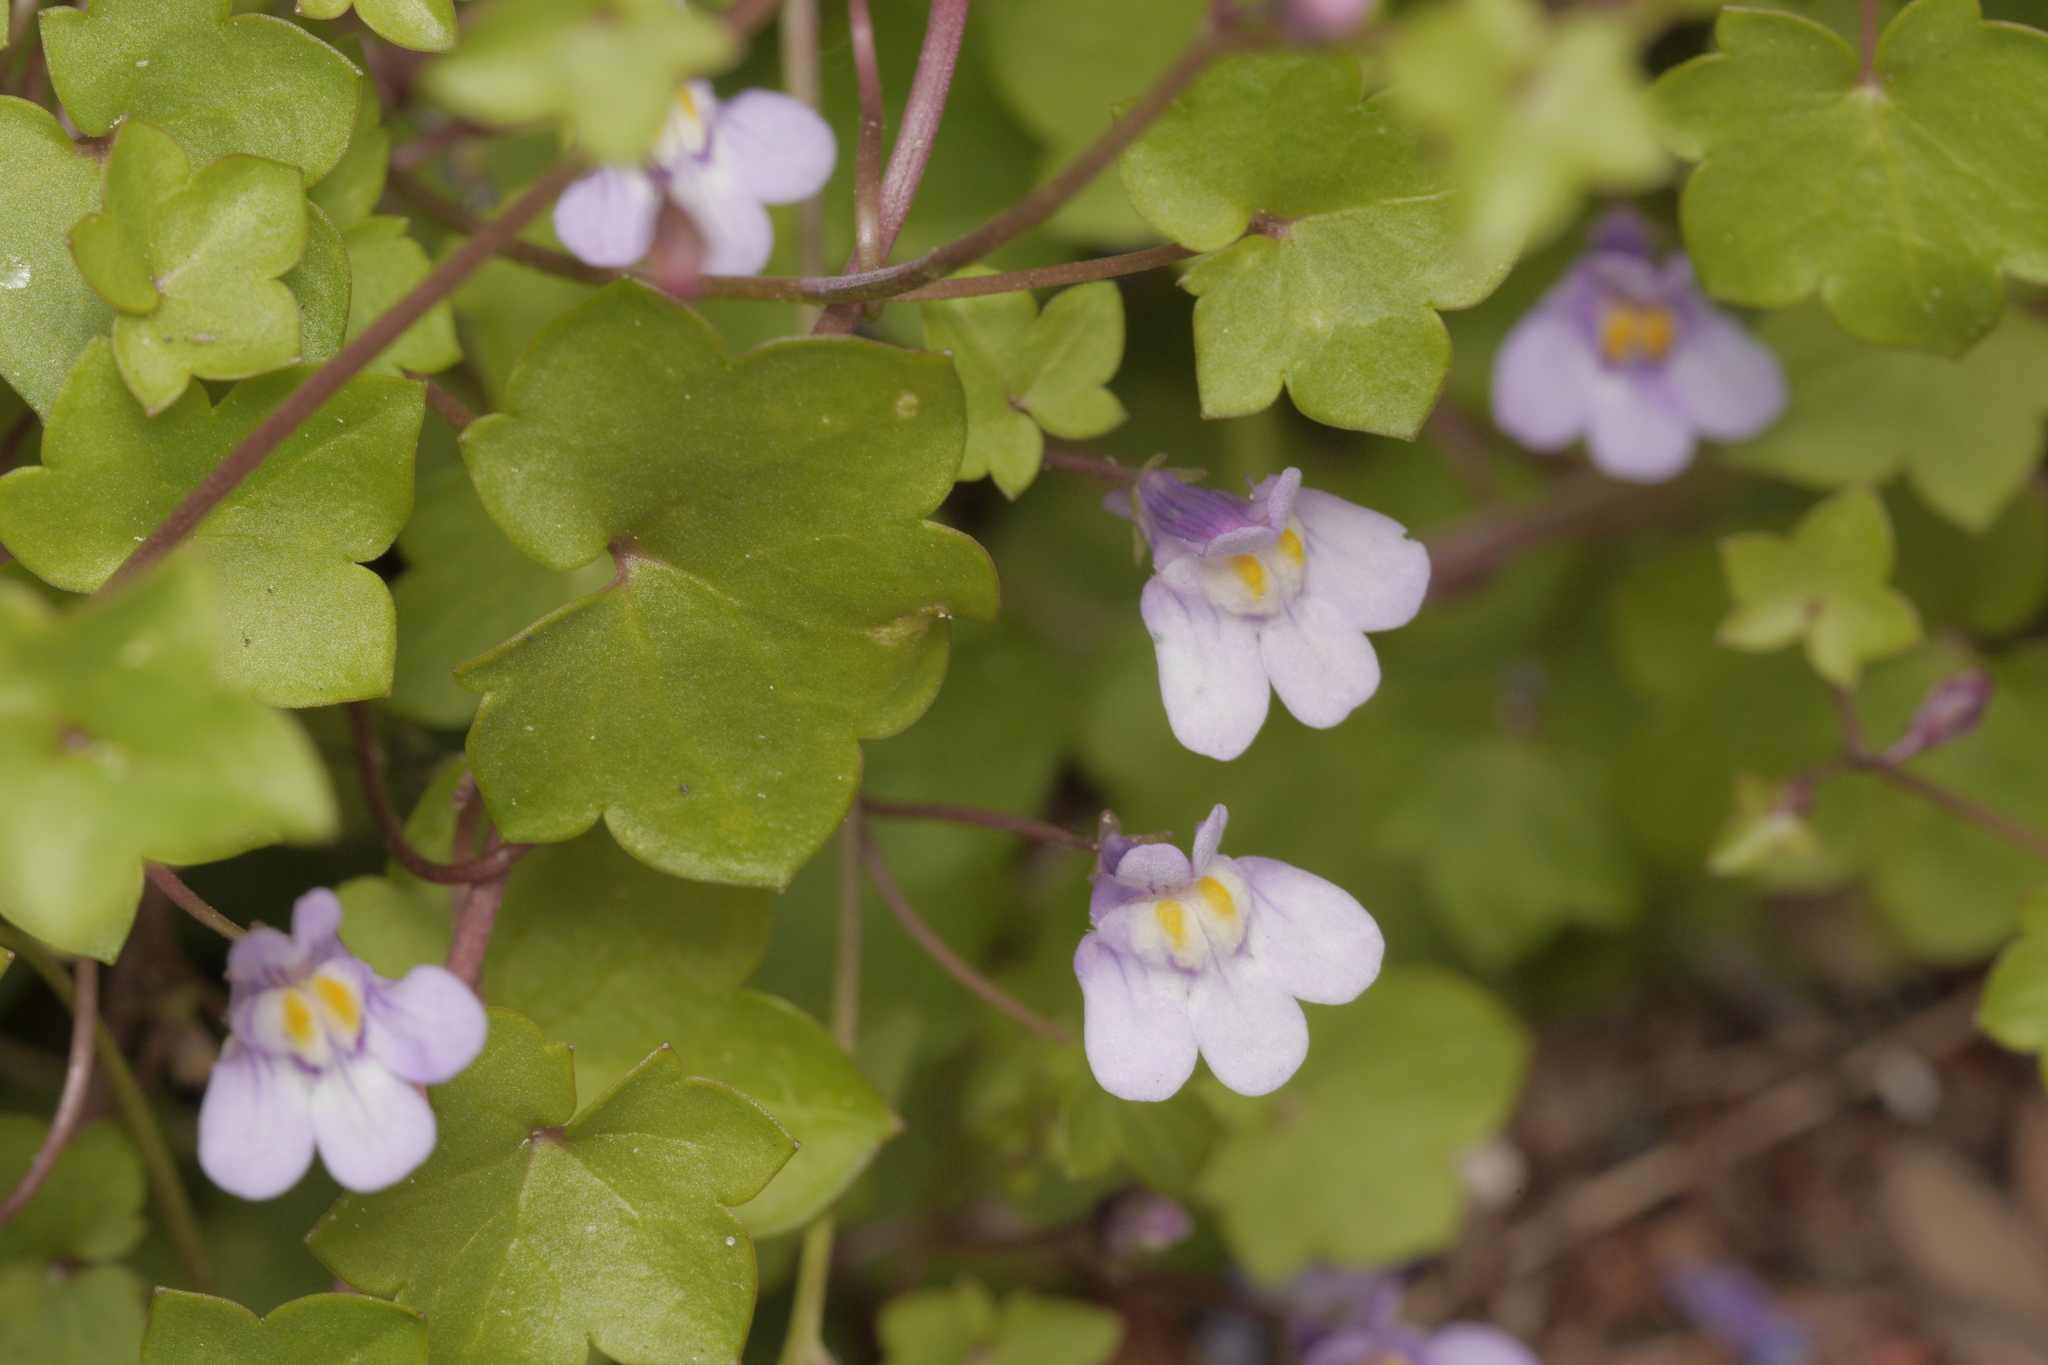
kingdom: Plantae
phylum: Tracheophyta
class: Magnoliopsida
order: Lamiales
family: Plantaginaceae
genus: Cymbalaria
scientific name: Cymbalaria muralis
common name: Ivy-leaved toadflax
